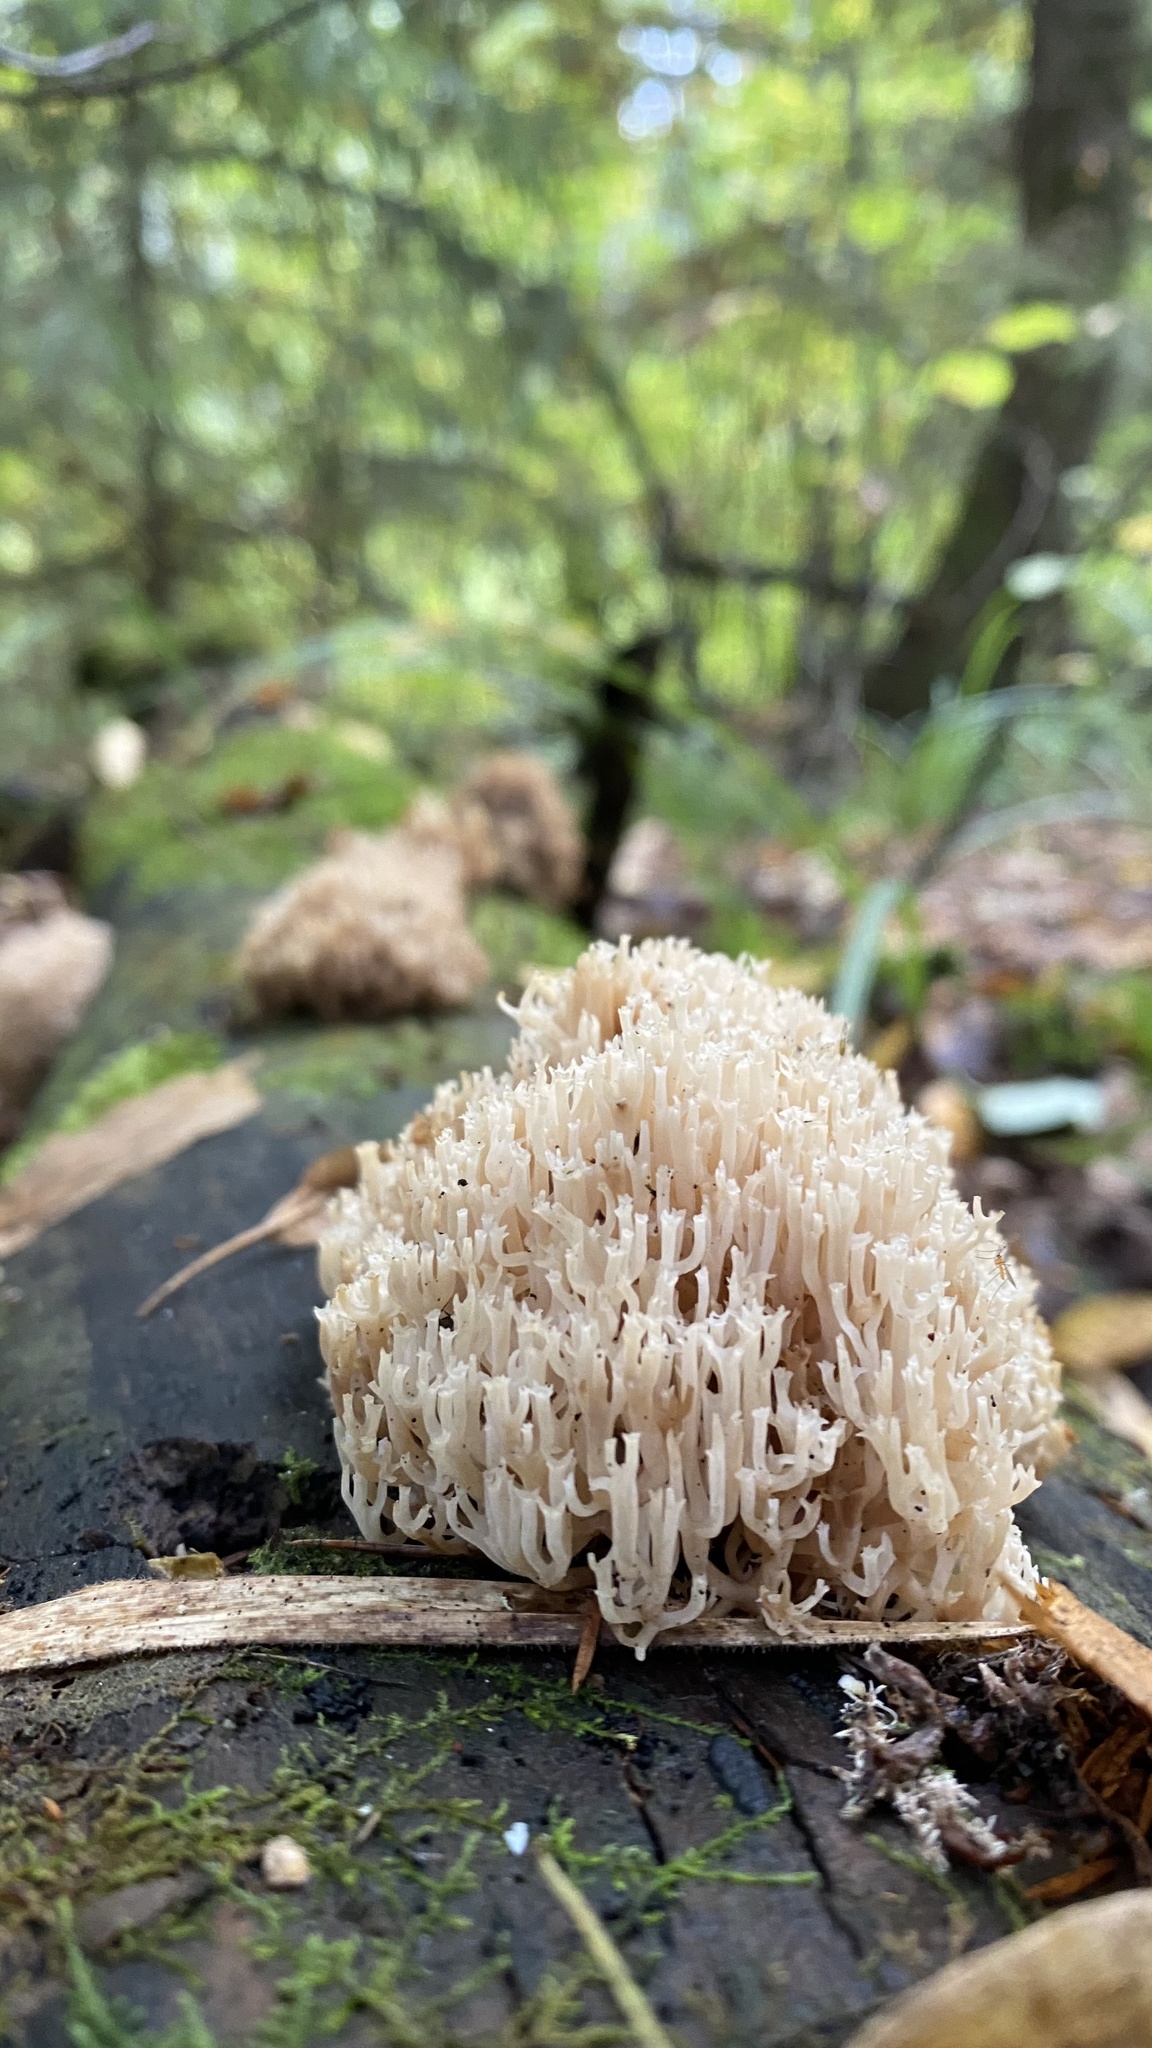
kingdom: Fungi
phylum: Basidiomycota
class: Agaricomycetes
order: Russulales
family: Auriscalpiaceae
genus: Artomyces
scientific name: Artomyces pyxidatus
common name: Crown-tipped coral fungus
